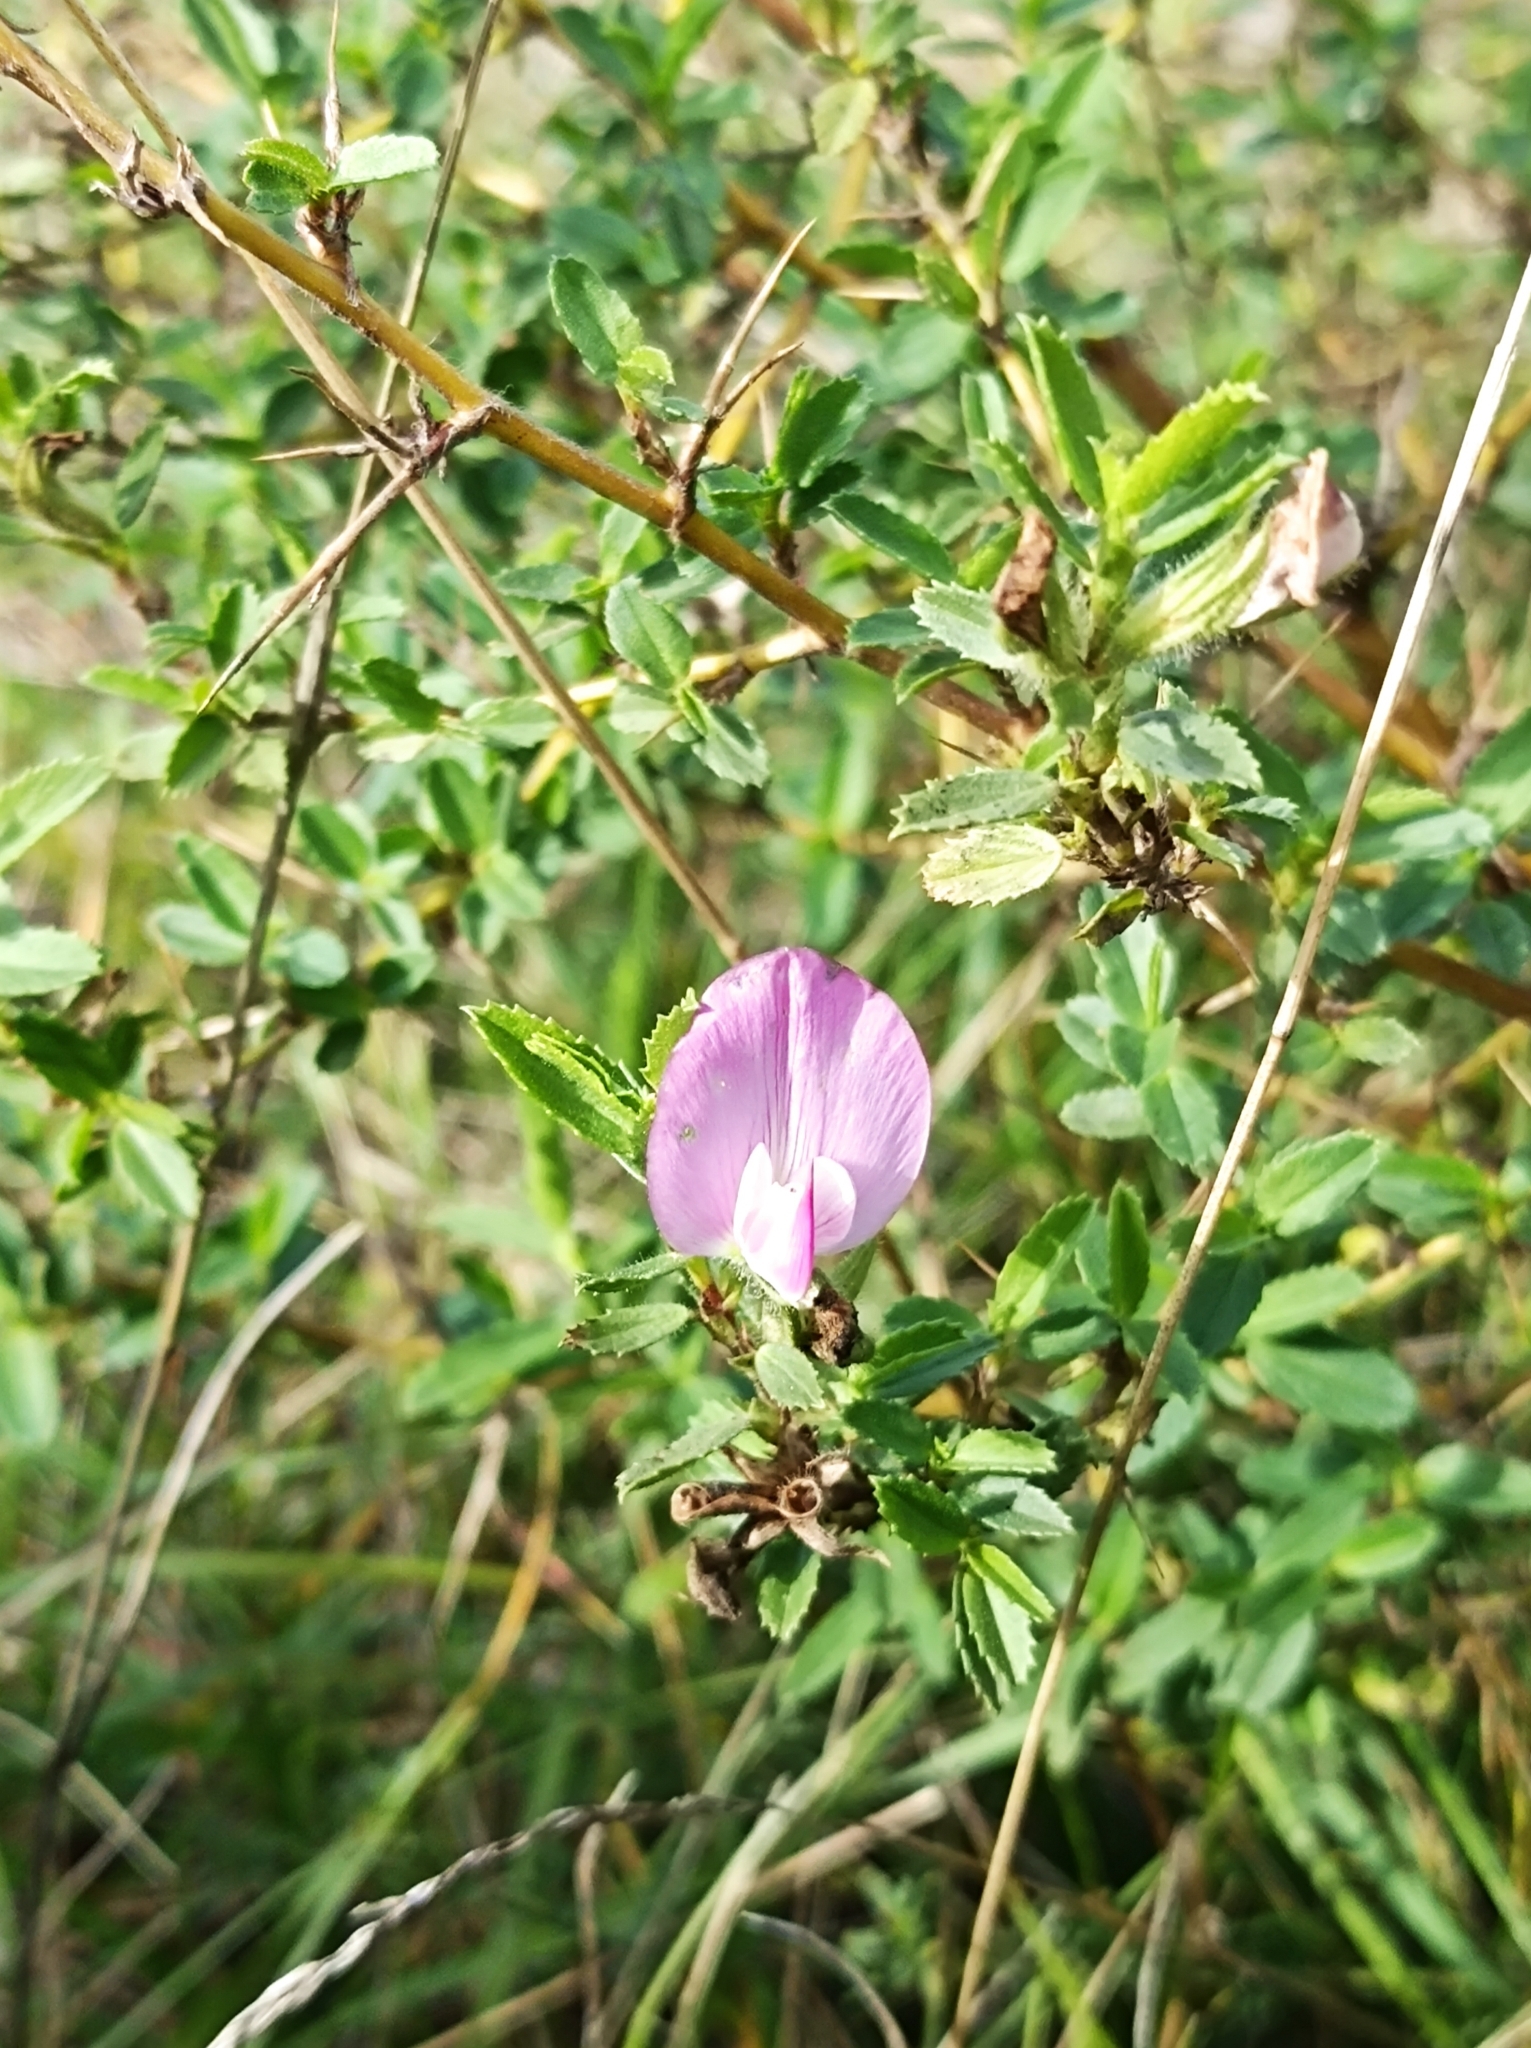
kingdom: Plantae
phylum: Tracheophyta
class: Magnoliopsida
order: Fabales
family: Fabaceae
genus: Ononis
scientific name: Ononis spinosa
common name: Spiny restharrow
